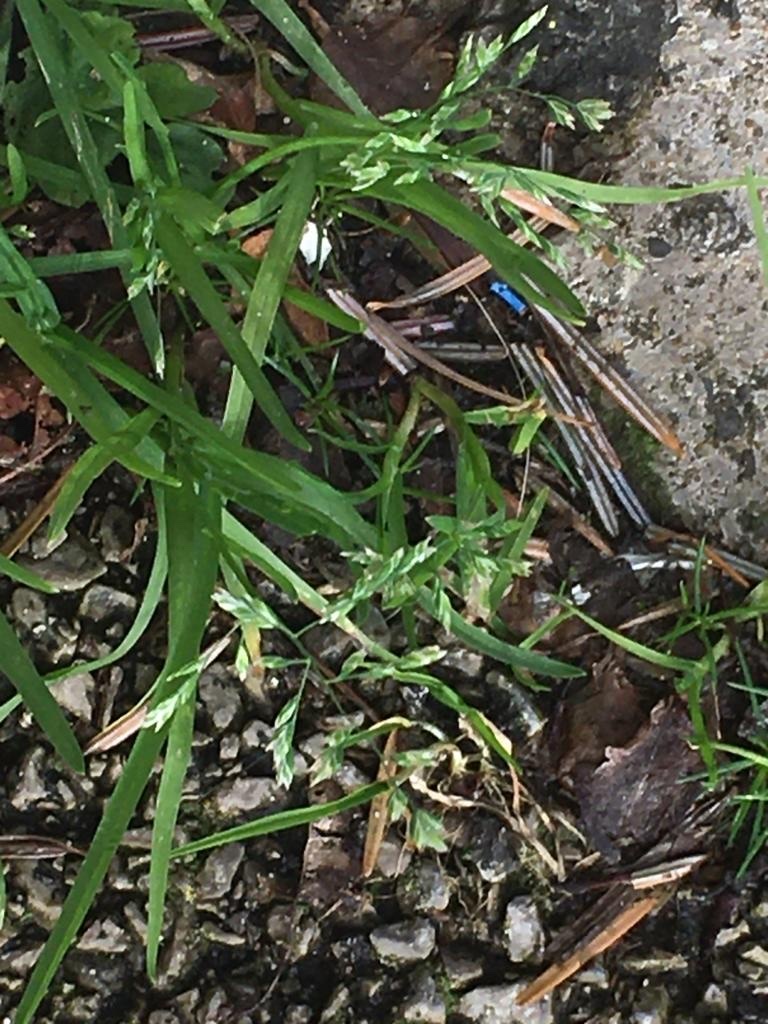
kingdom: Plantae
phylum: Tracheophyta
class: Liliopsida
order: Poales
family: Poaceae
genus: Poa
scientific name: Poa annua
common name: Annual bluegrass
